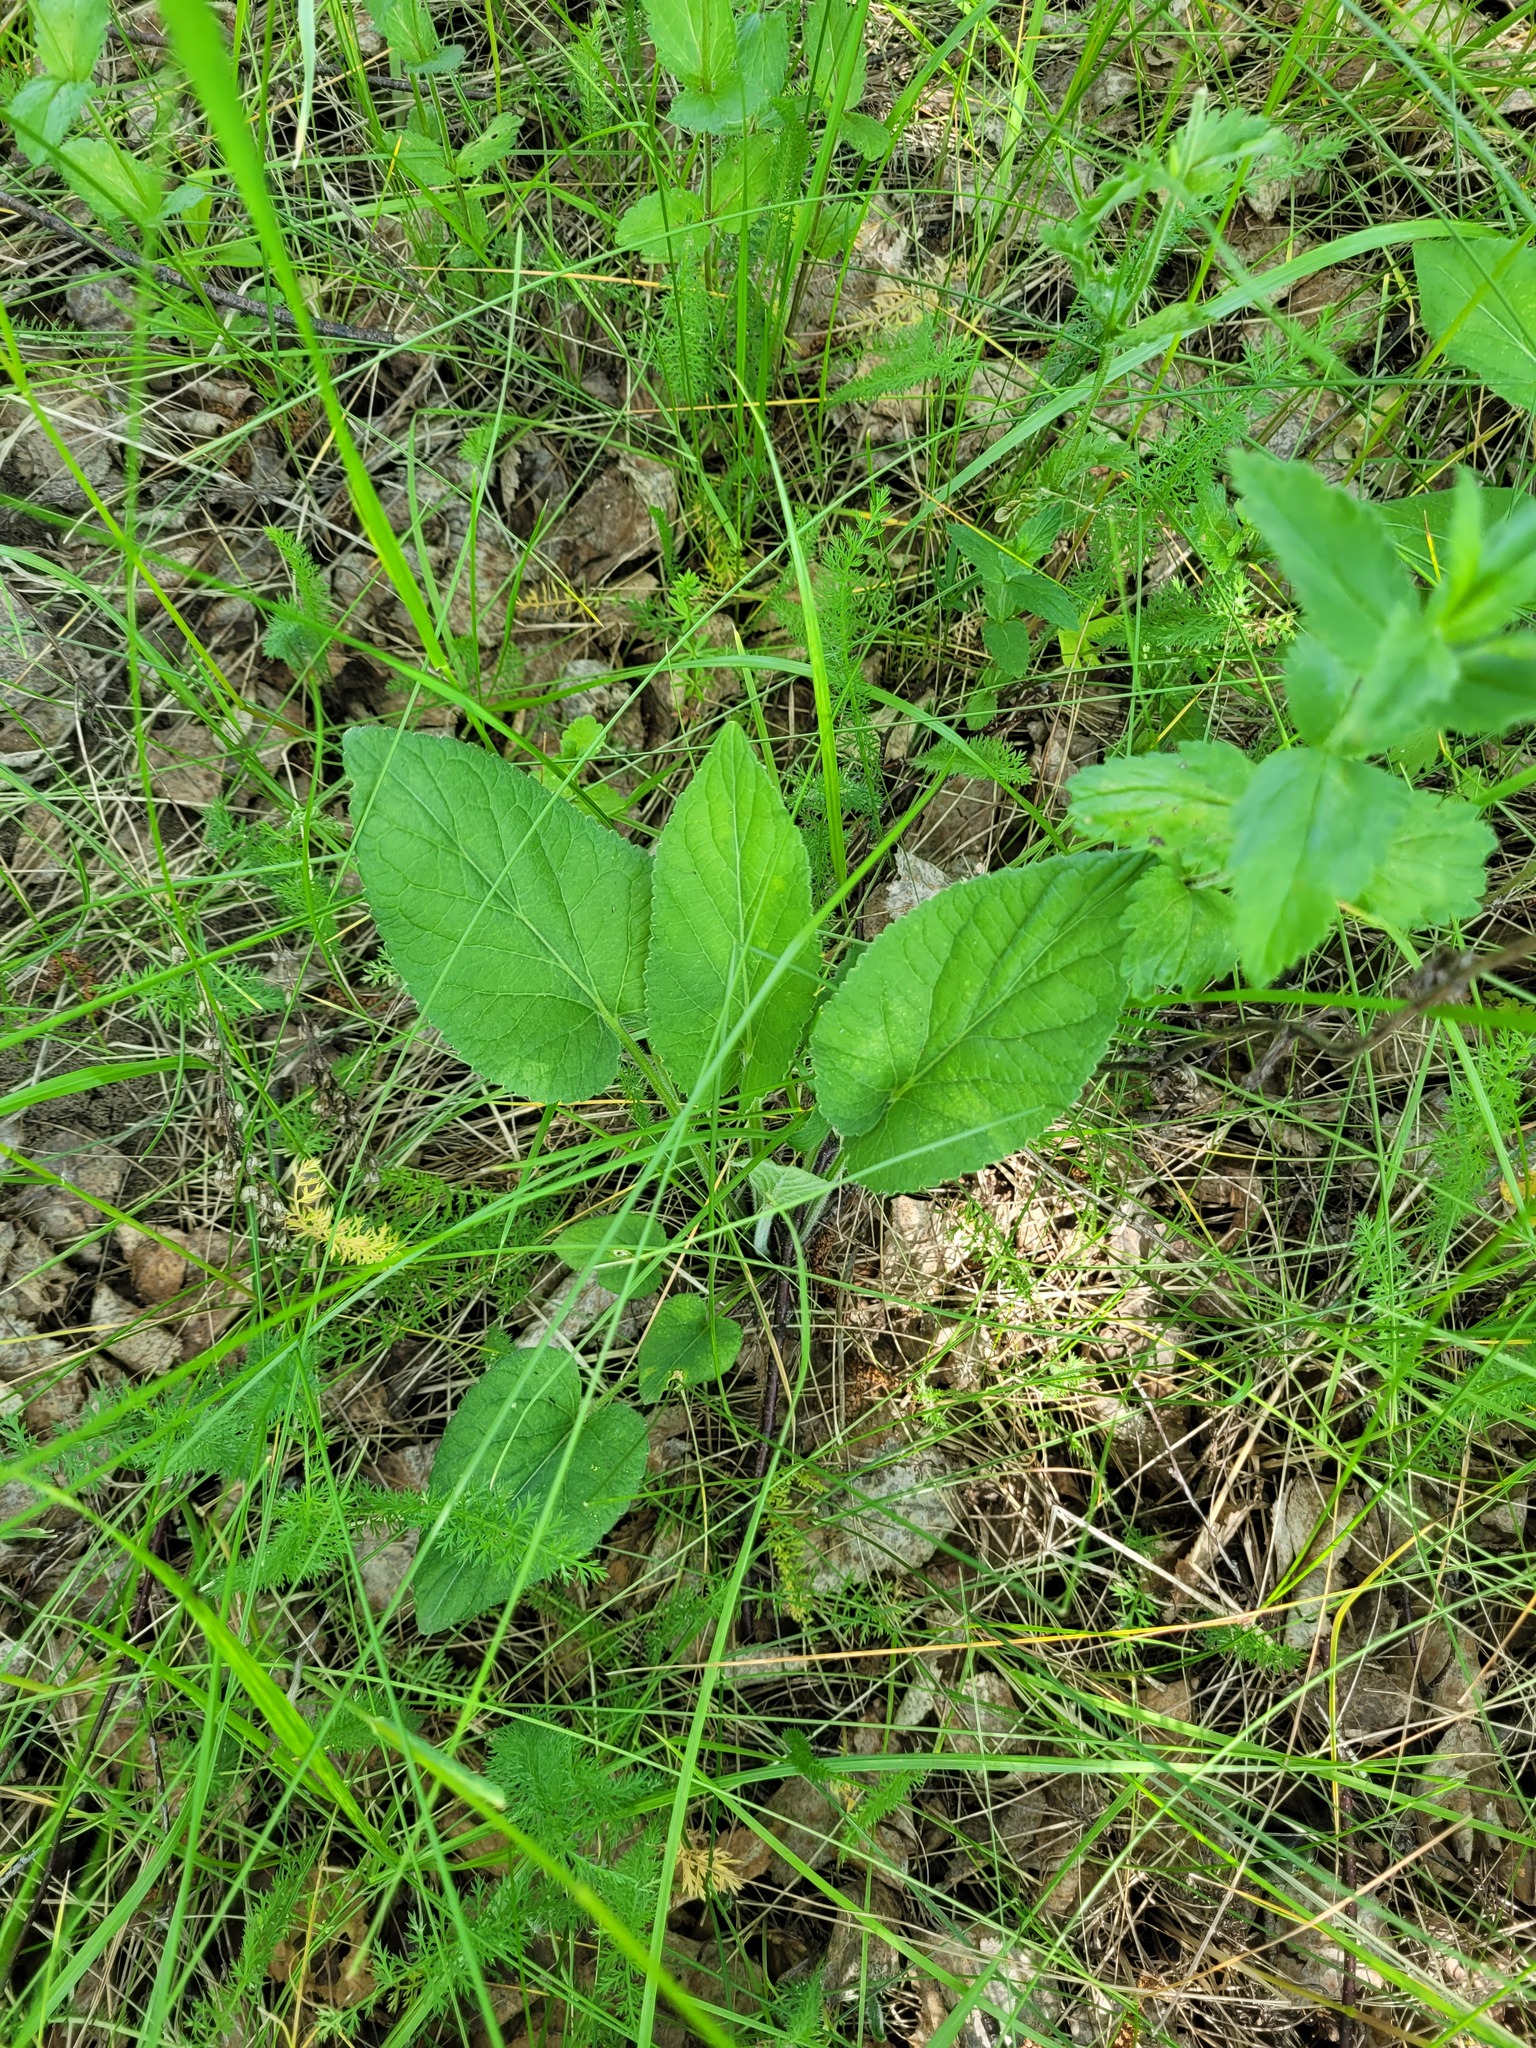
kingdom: Plantae
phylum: Tracheophyta
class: Magnoliopsida
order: Malpighiales
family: Violaceae
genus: Viola
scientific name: Viola hirta
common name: Hairy violet
